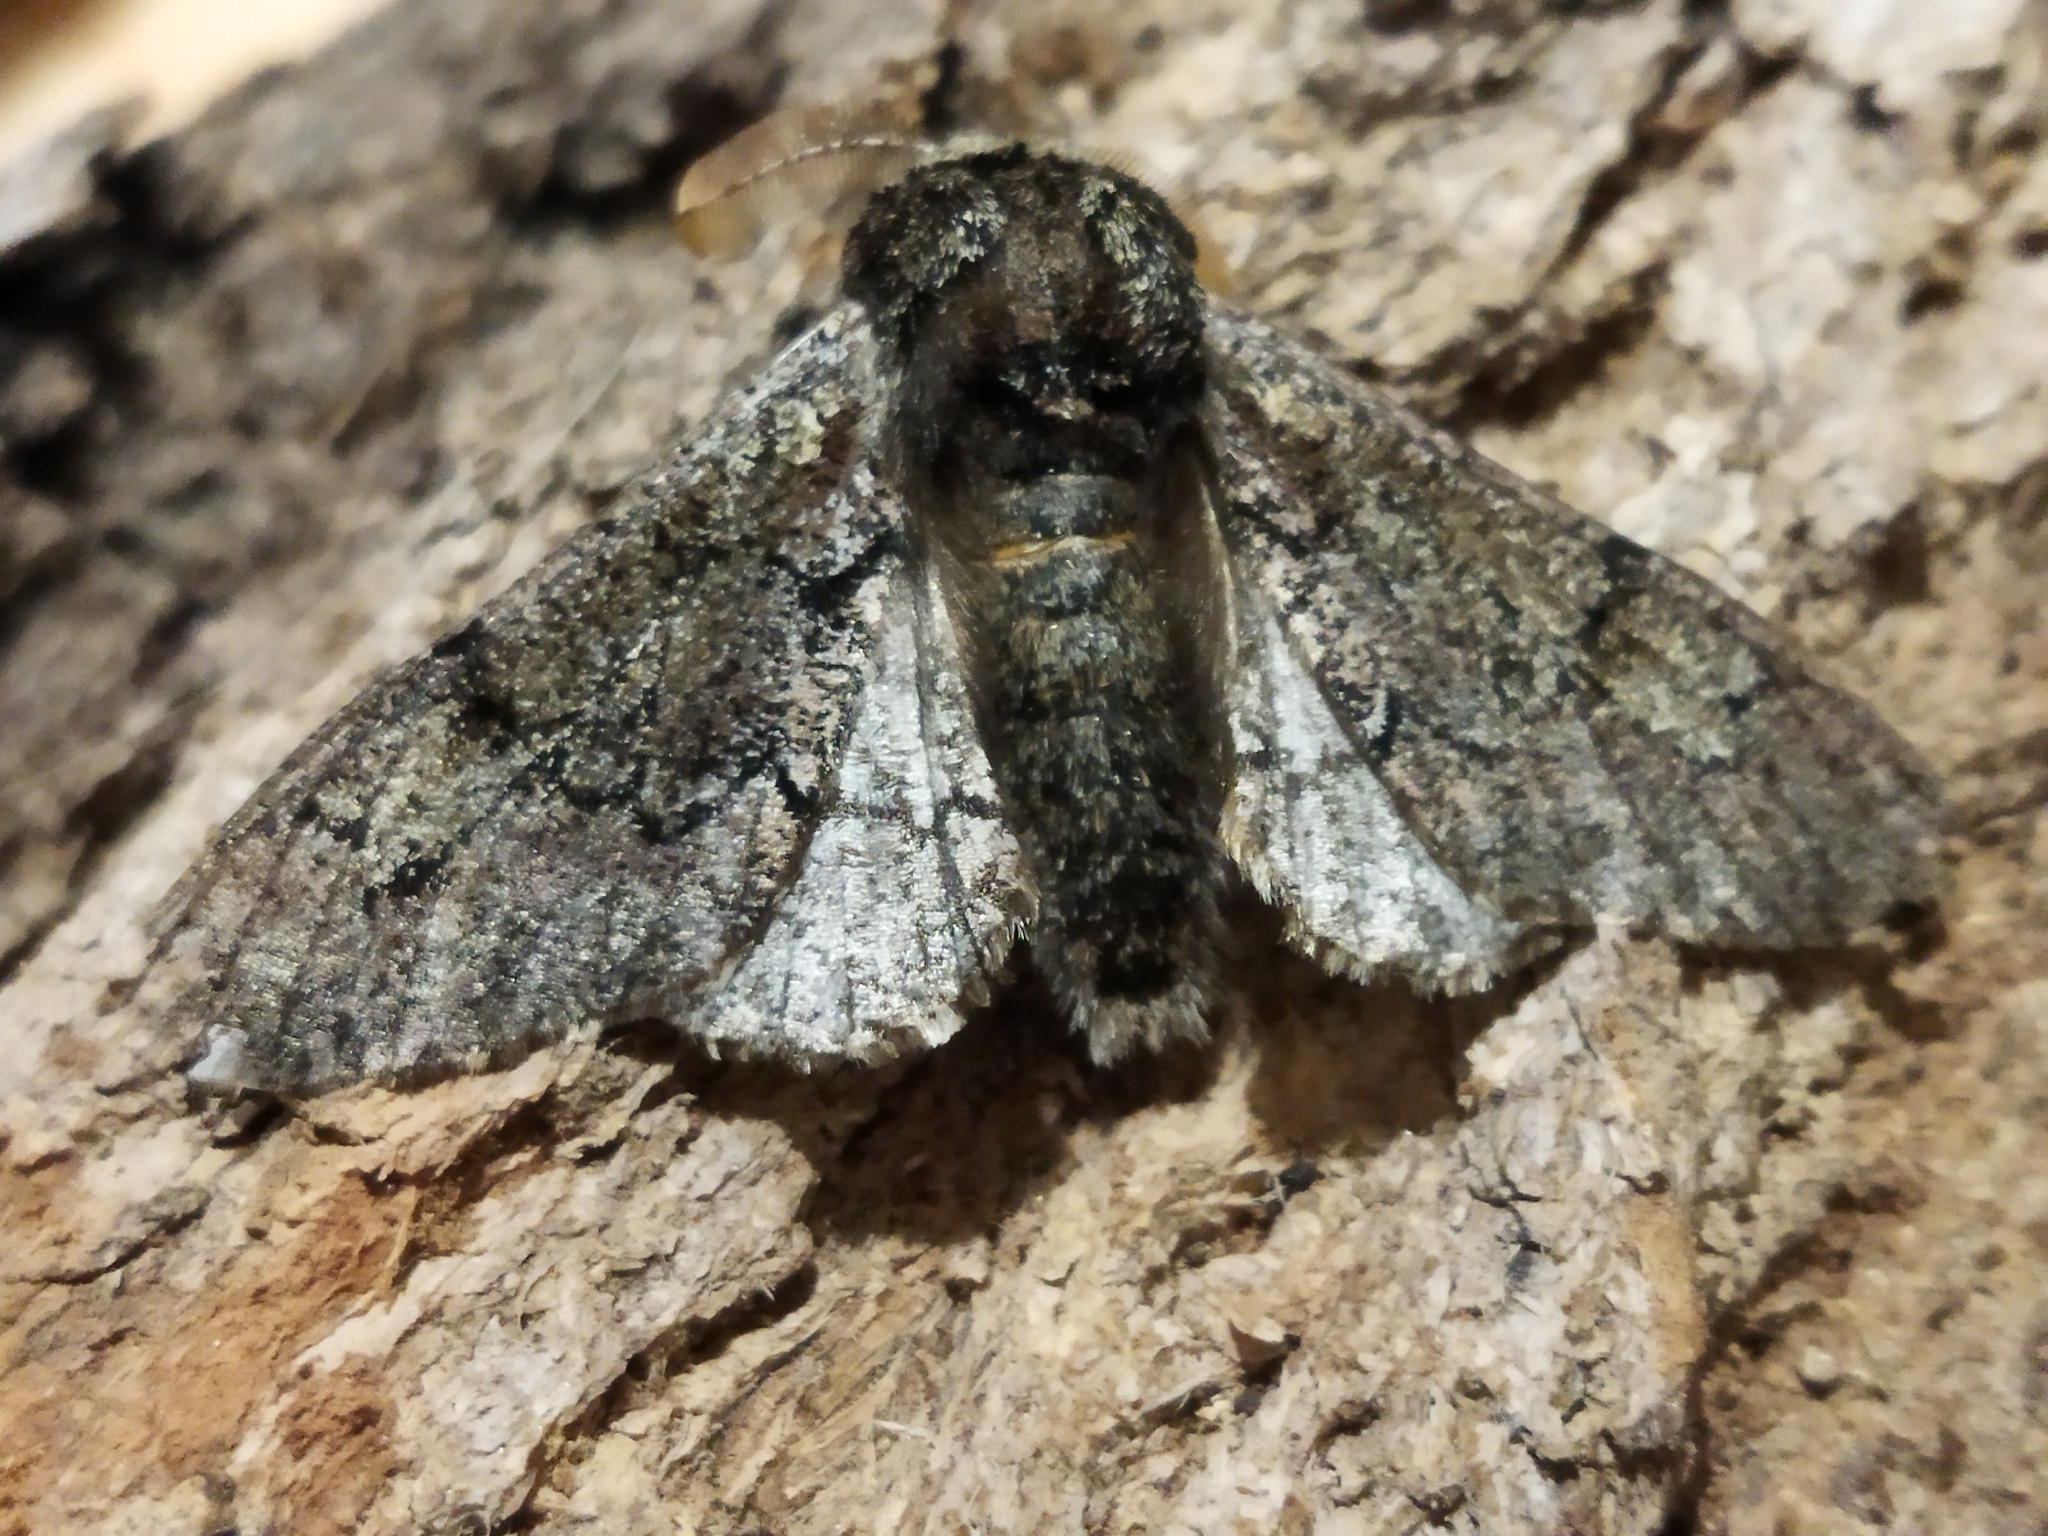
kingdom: Animalia
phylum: Arthropoda
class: Insecta
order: Lepidoptera
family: Geometridae
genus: Biston
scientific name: Biston strataria
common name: Oak beauty
